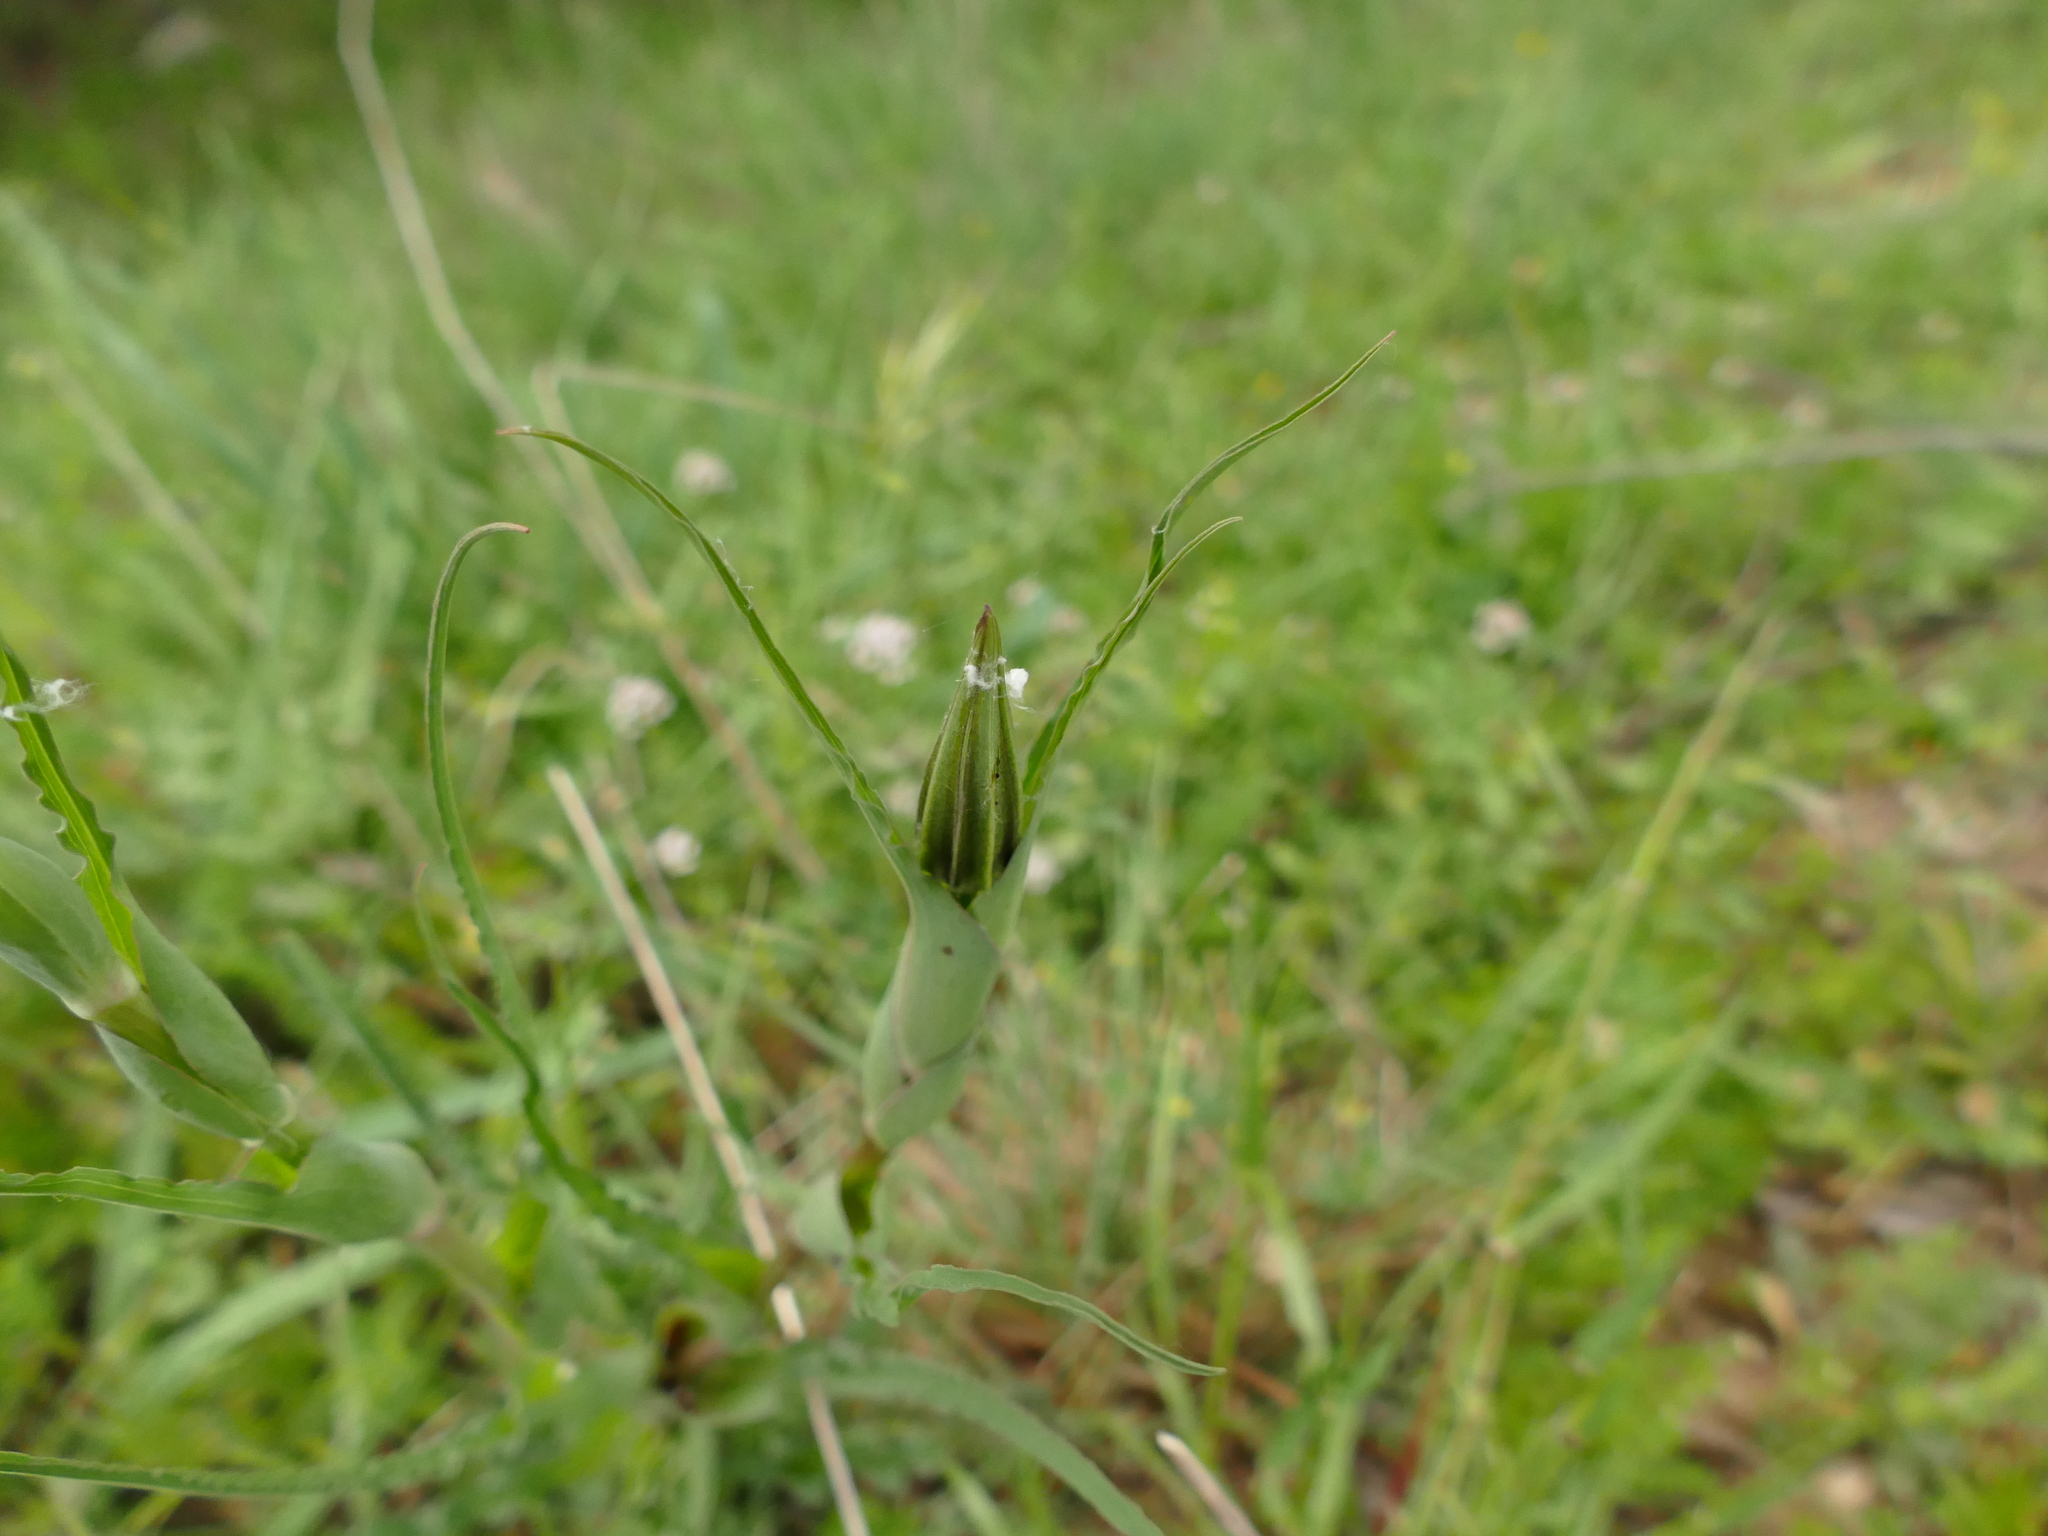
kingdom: Plantae
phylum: Tracheophyta
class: Magnoliopsida
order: Asterales
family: Asteraceae
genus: Tragopogon
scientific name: Tragopogon porrifolius
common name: Salsify
